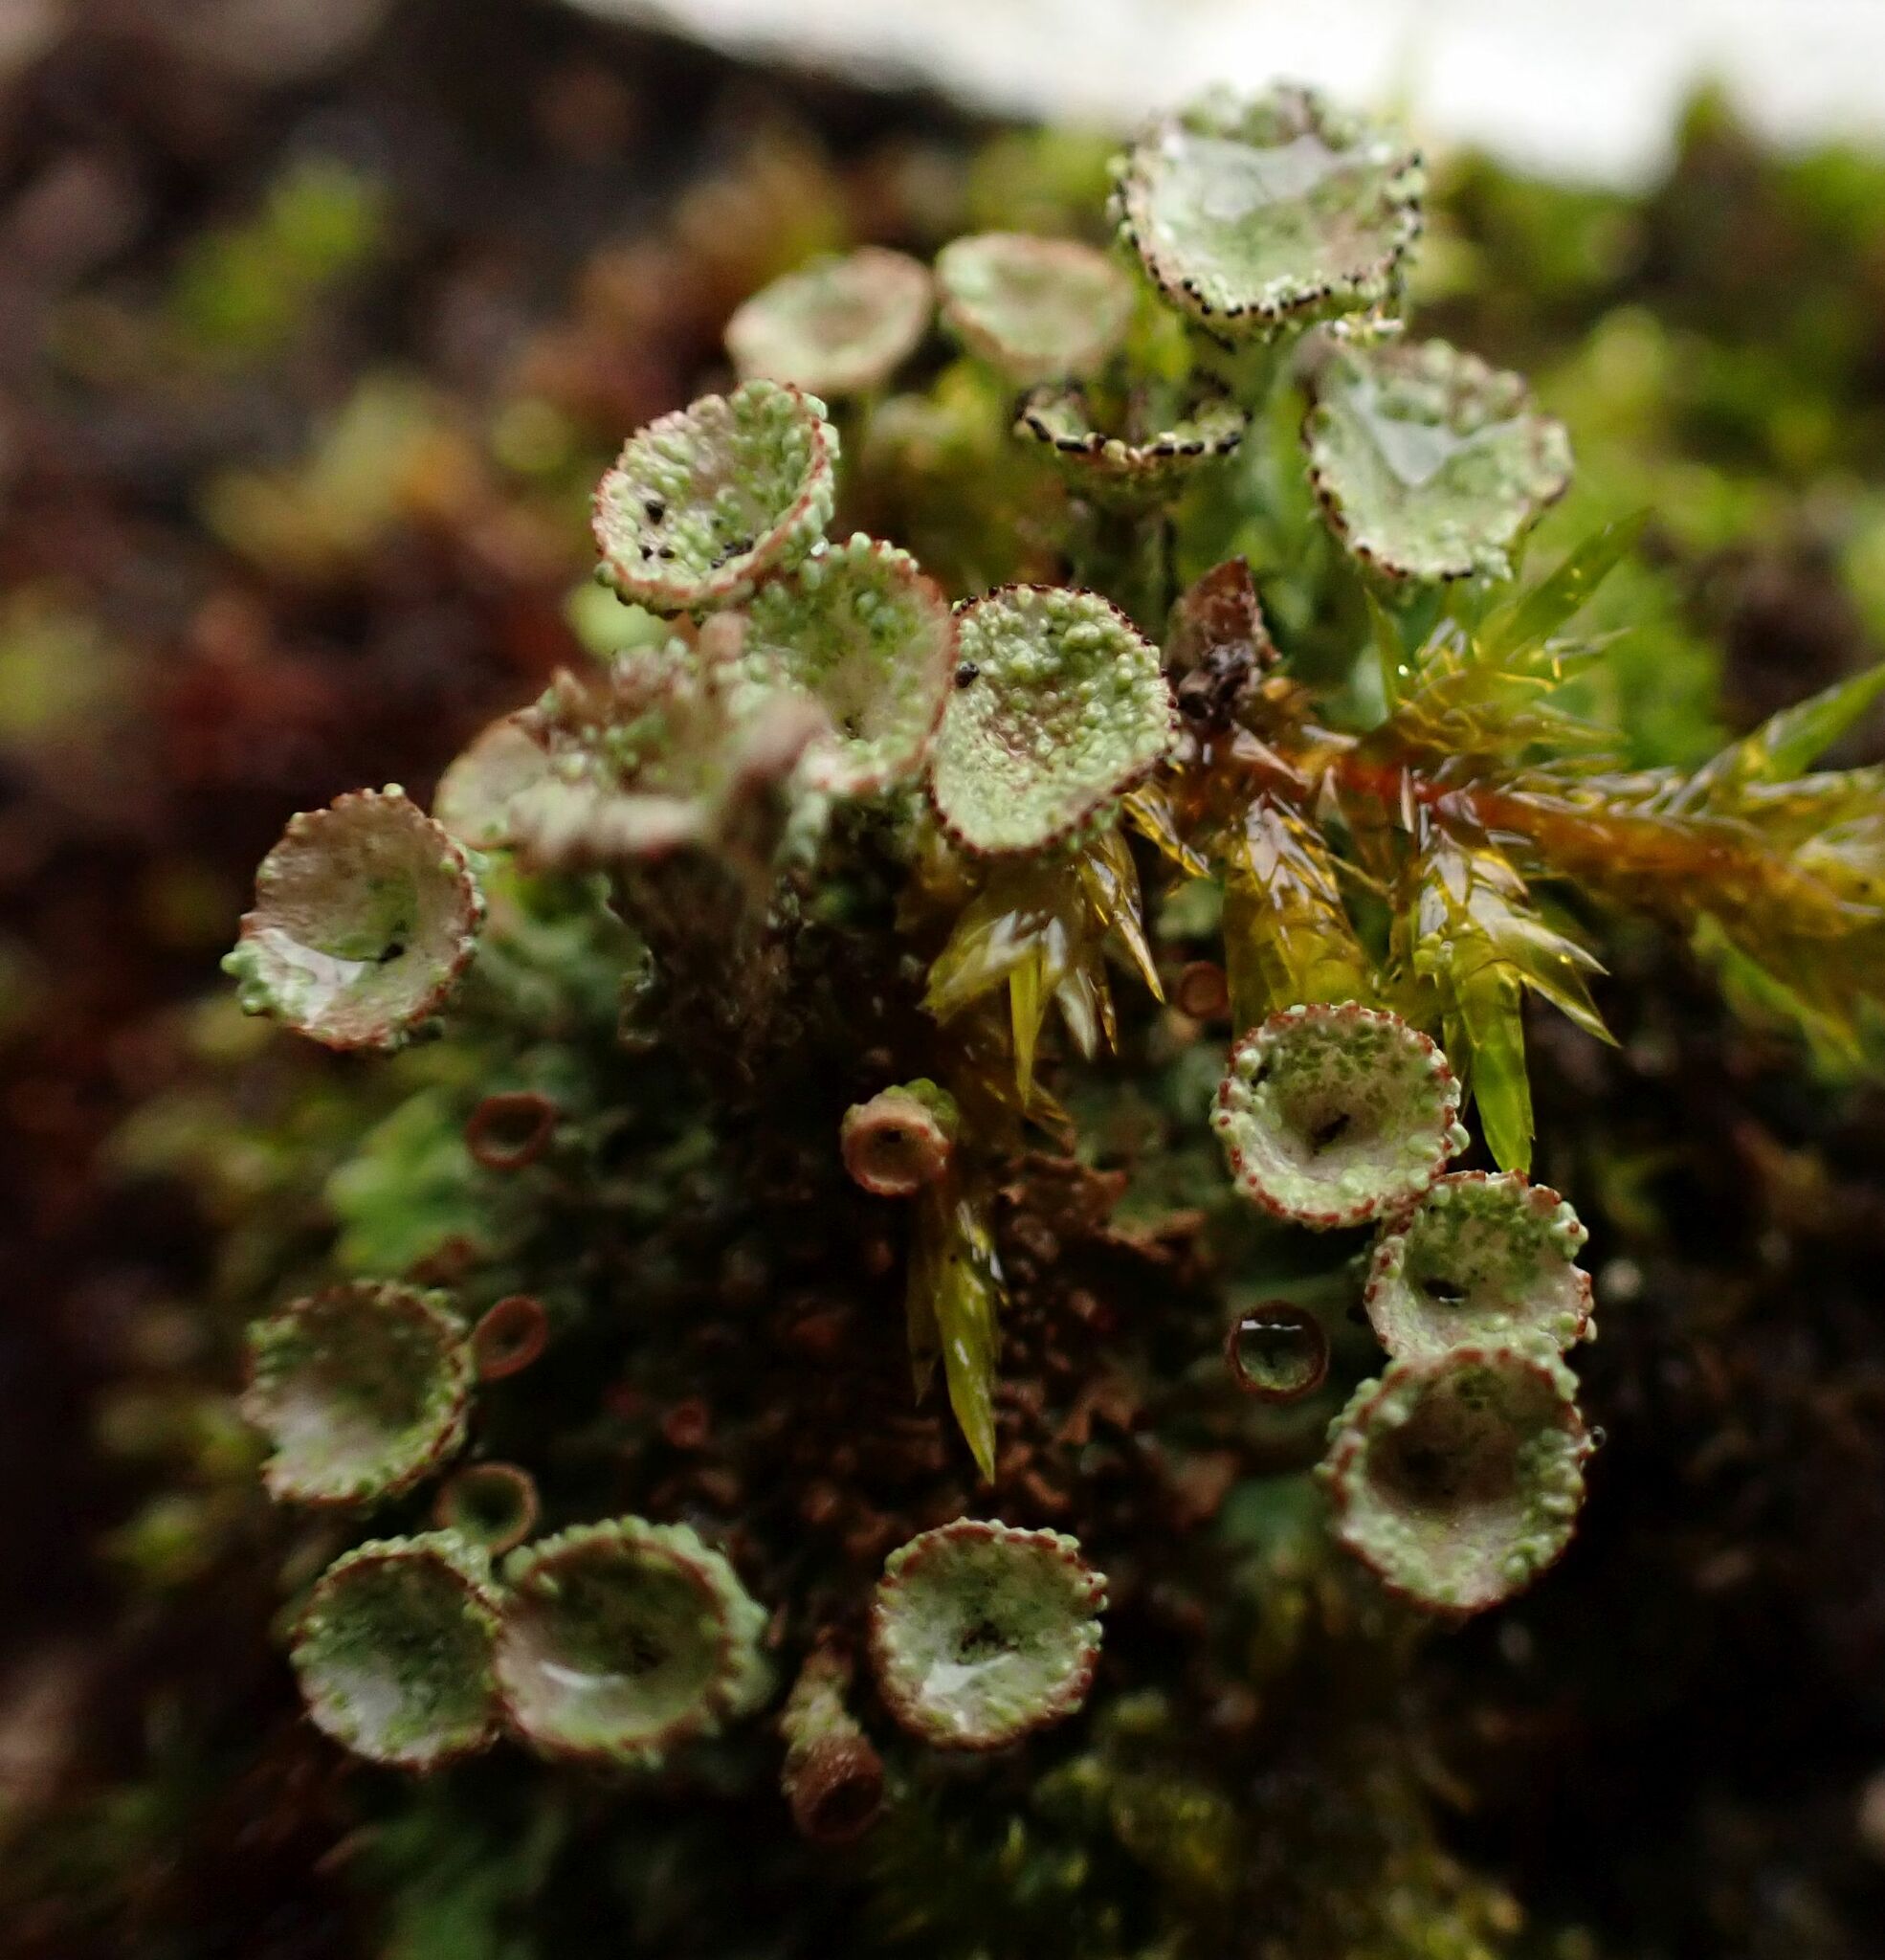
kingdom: Fungi
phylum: Ascomycota
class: Lecanoromycetes
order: Lecanorales
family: Cladoniaceae
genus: Cladonia
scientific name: Cladonia pyxidata
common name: Pebbled pixie cup
